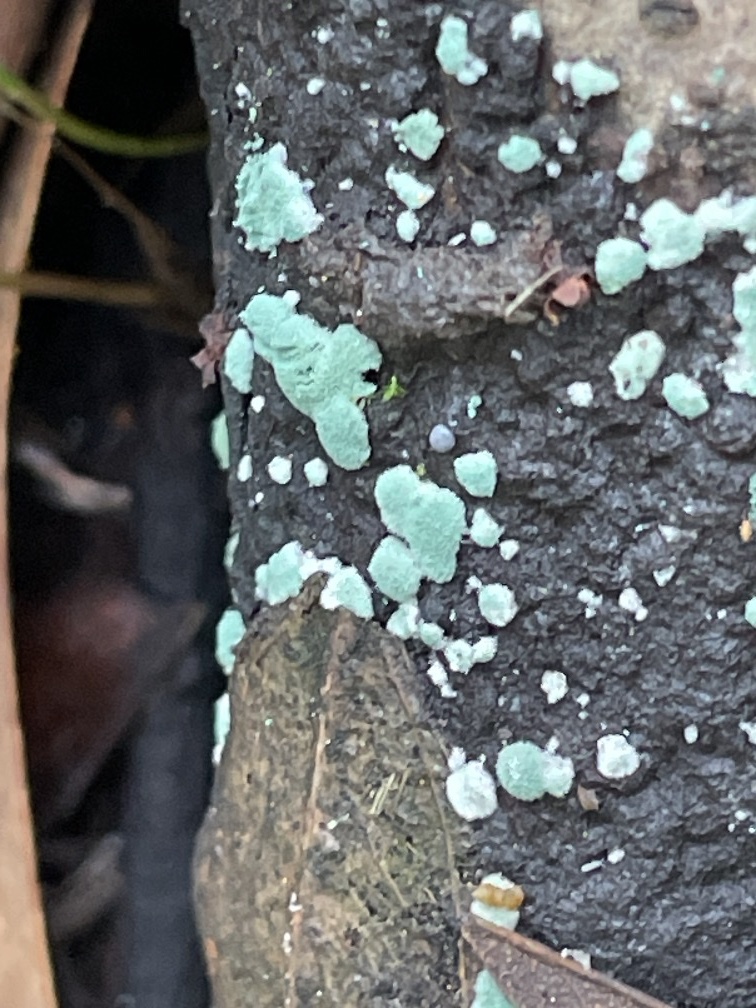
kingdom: Fungi
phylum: Ascomycota
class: Sordariomycetes
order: Hypocreales
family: Hypocreaceae
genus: Trichoderma
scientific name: Trichoderma viride
